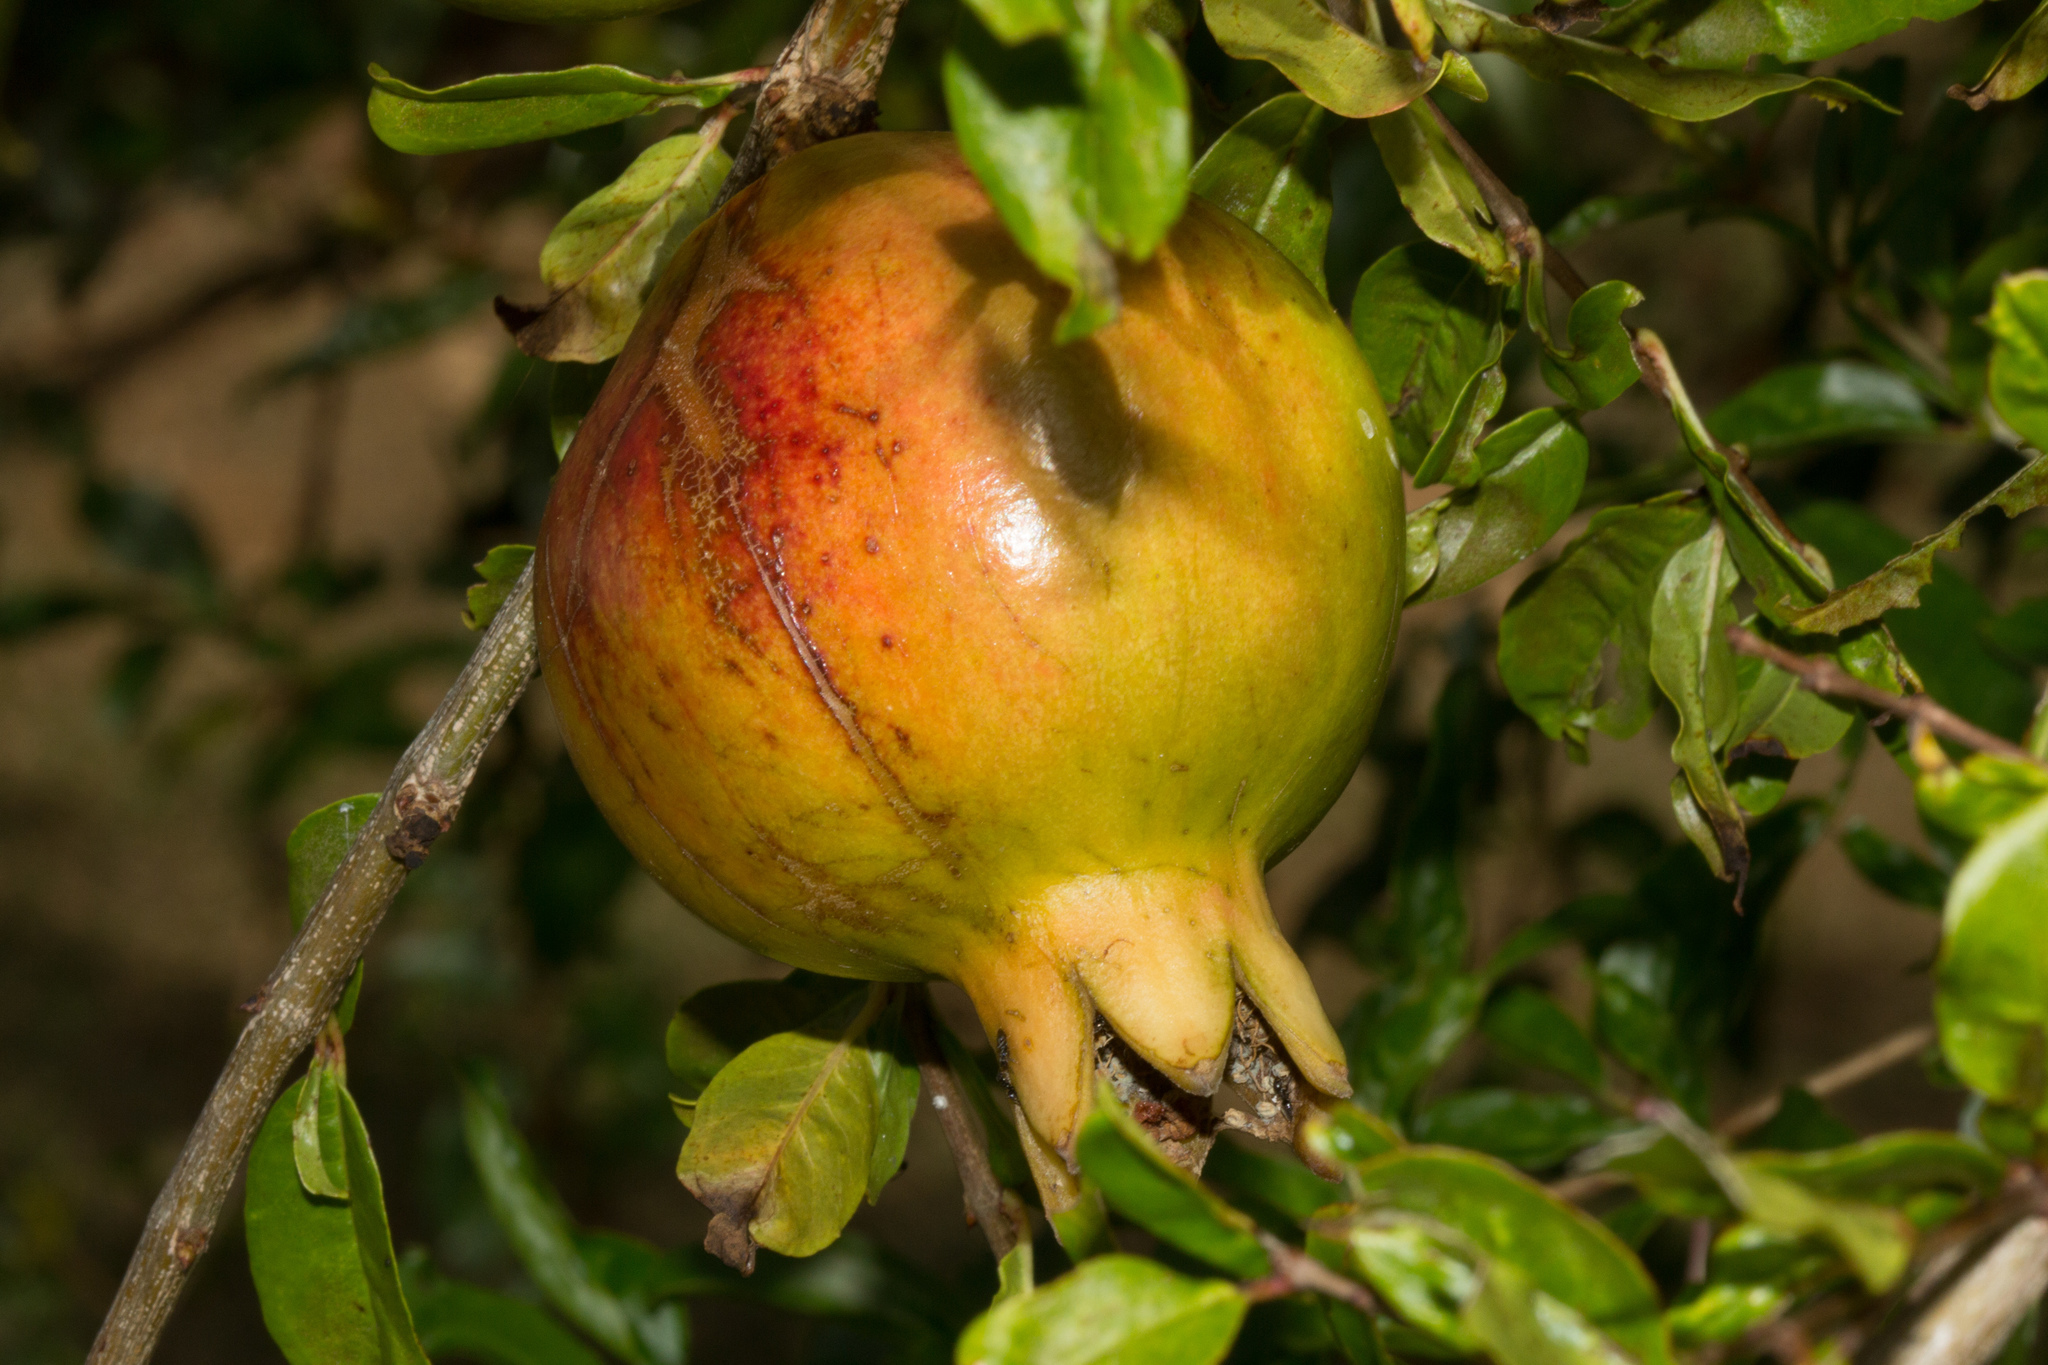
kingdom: Plantae
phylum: Tracheophyta
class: Magnoliopsida
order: Myrtales
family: Lythraceae
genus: Punica
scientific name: Punica granatum
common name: Pomegranate
